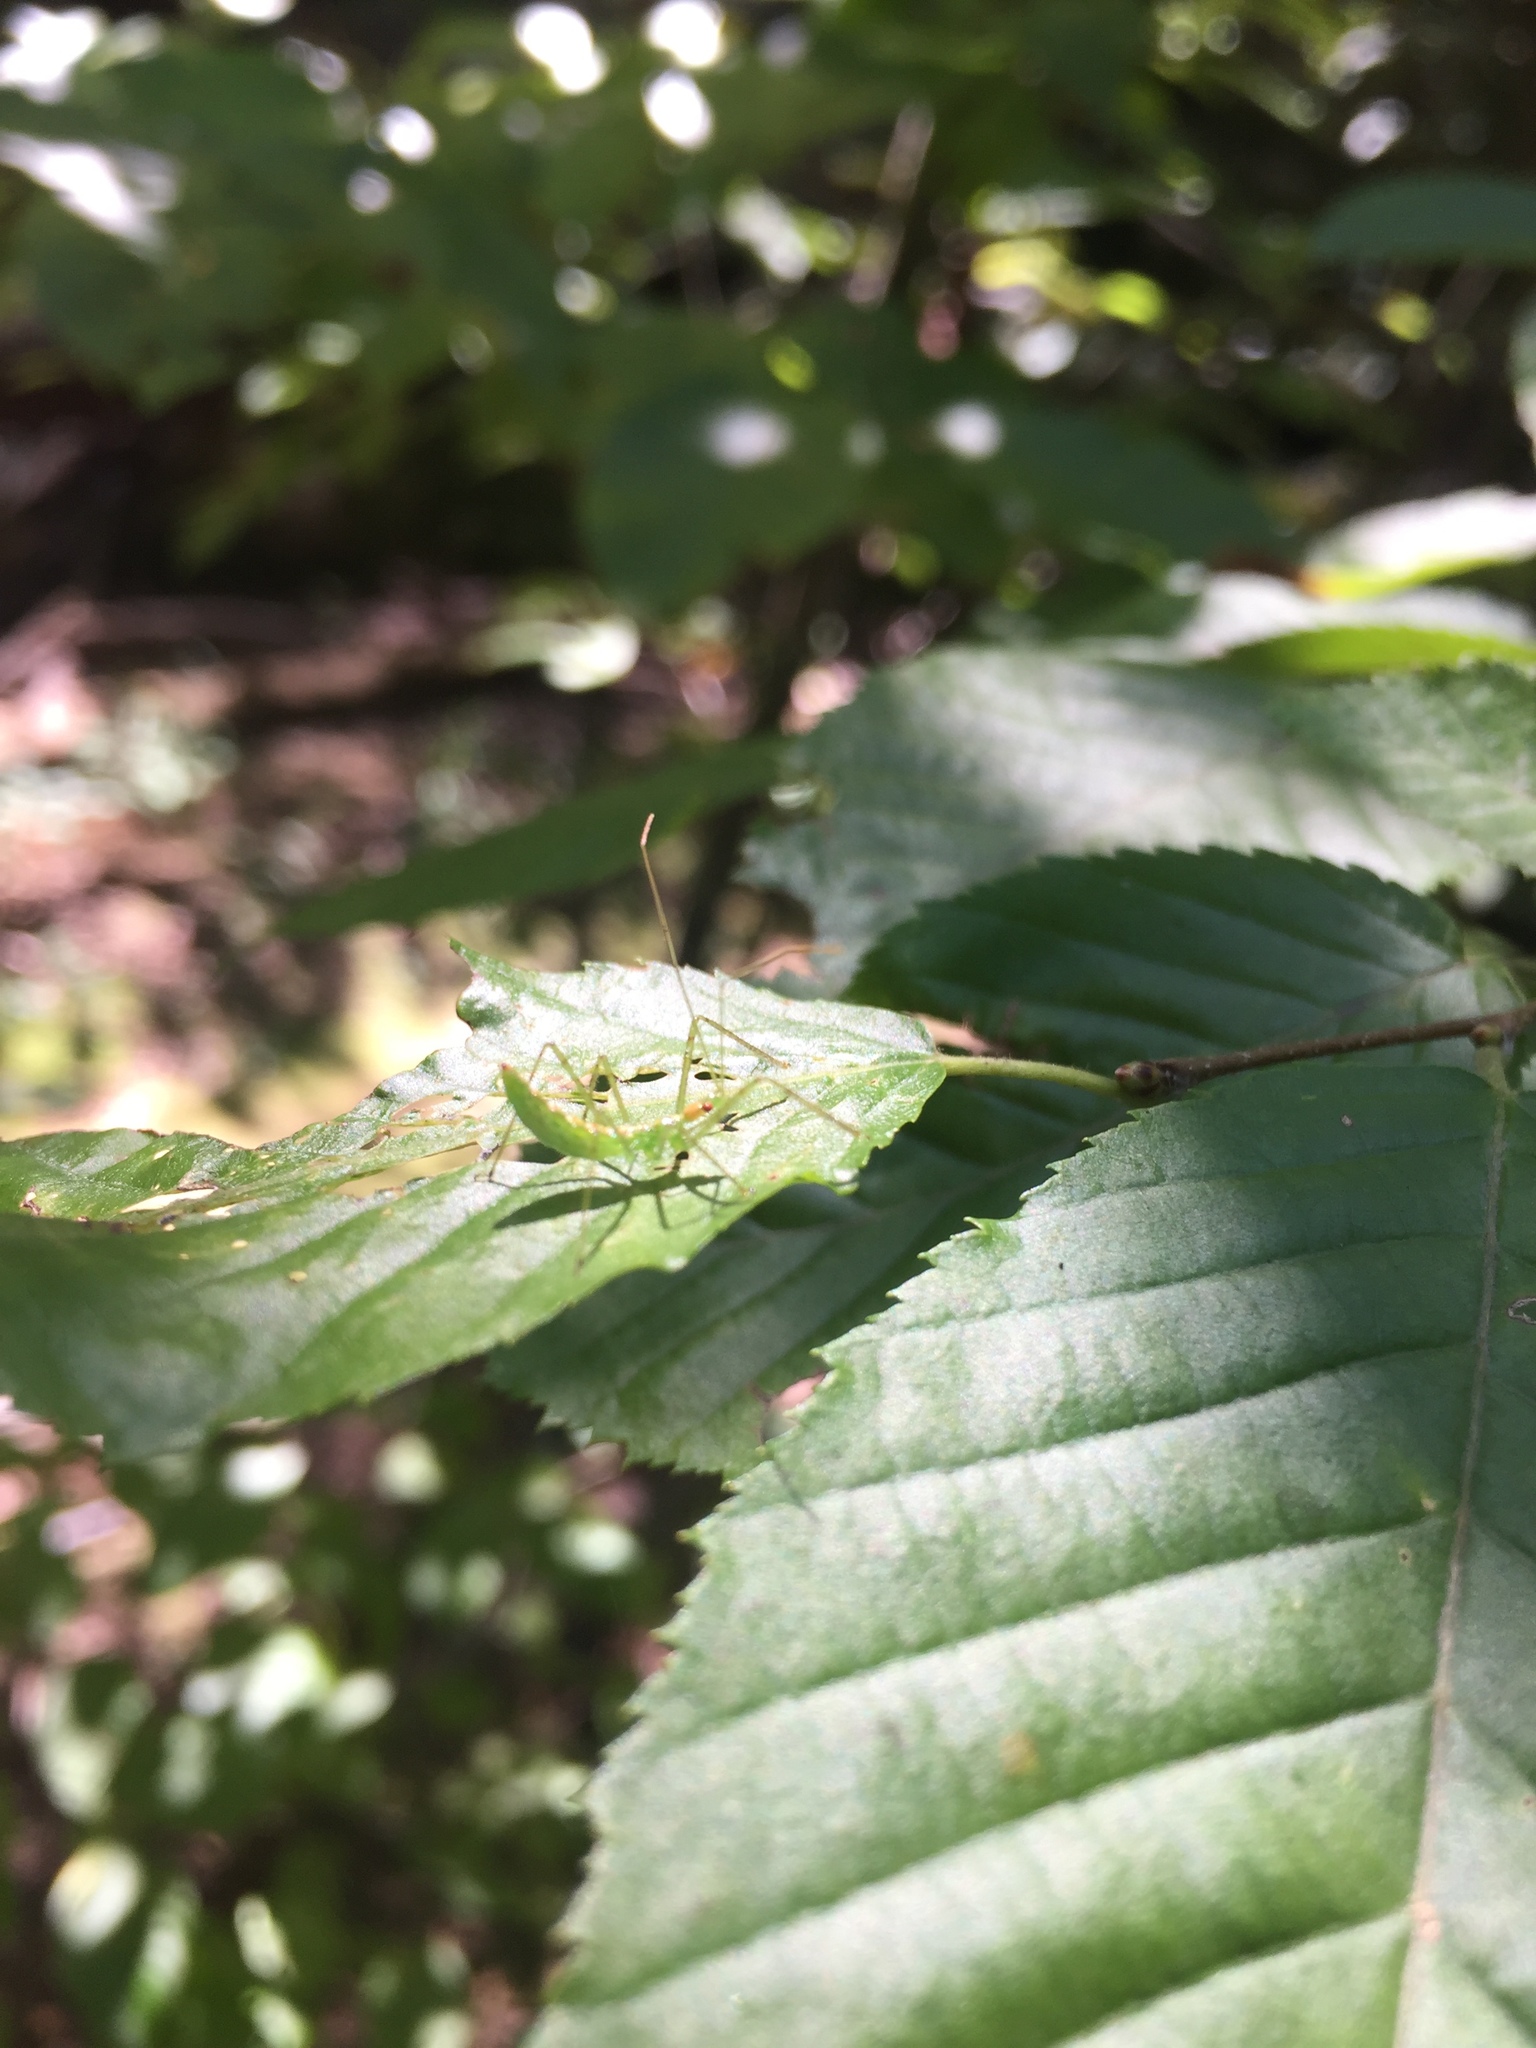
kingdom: Animalia
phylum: Arthropoda
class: Insecta
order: Hemiptera
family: Reduviidae
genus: Zelus
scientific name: Zelus luridus
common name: Pale green assassin bug
